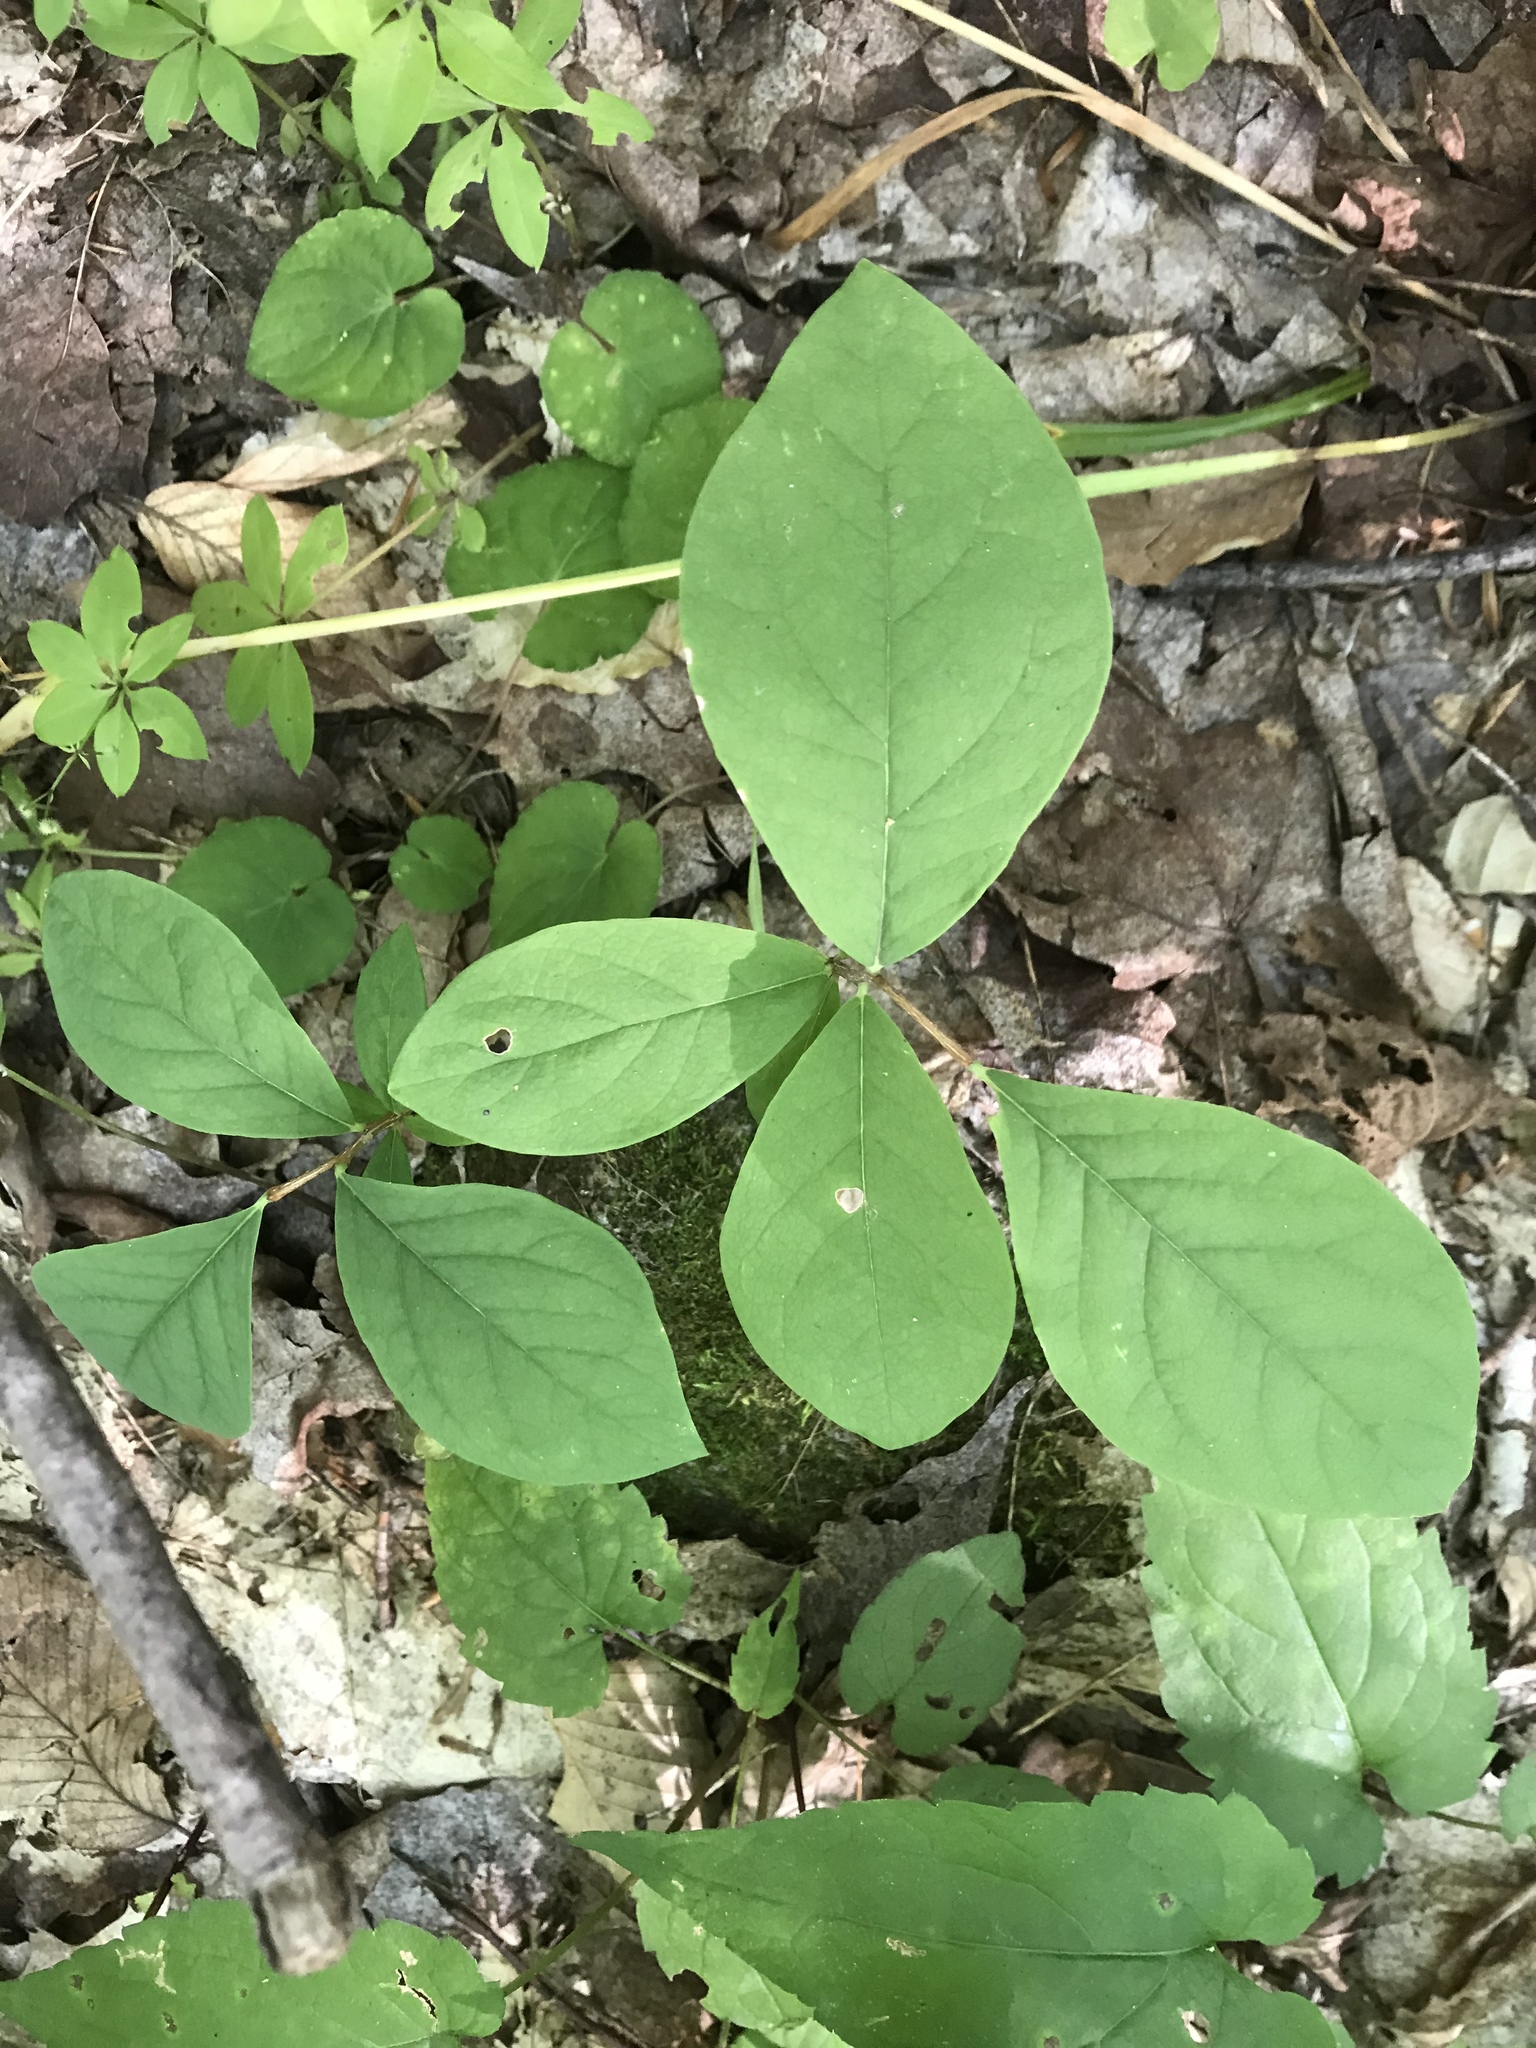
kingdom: Plantae
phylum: Tracheophyta
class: Magnoliopsida
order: Malvales
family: Thymelaeaceae
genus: Dirca
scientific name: Dirca palustris
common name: Leatherwood
